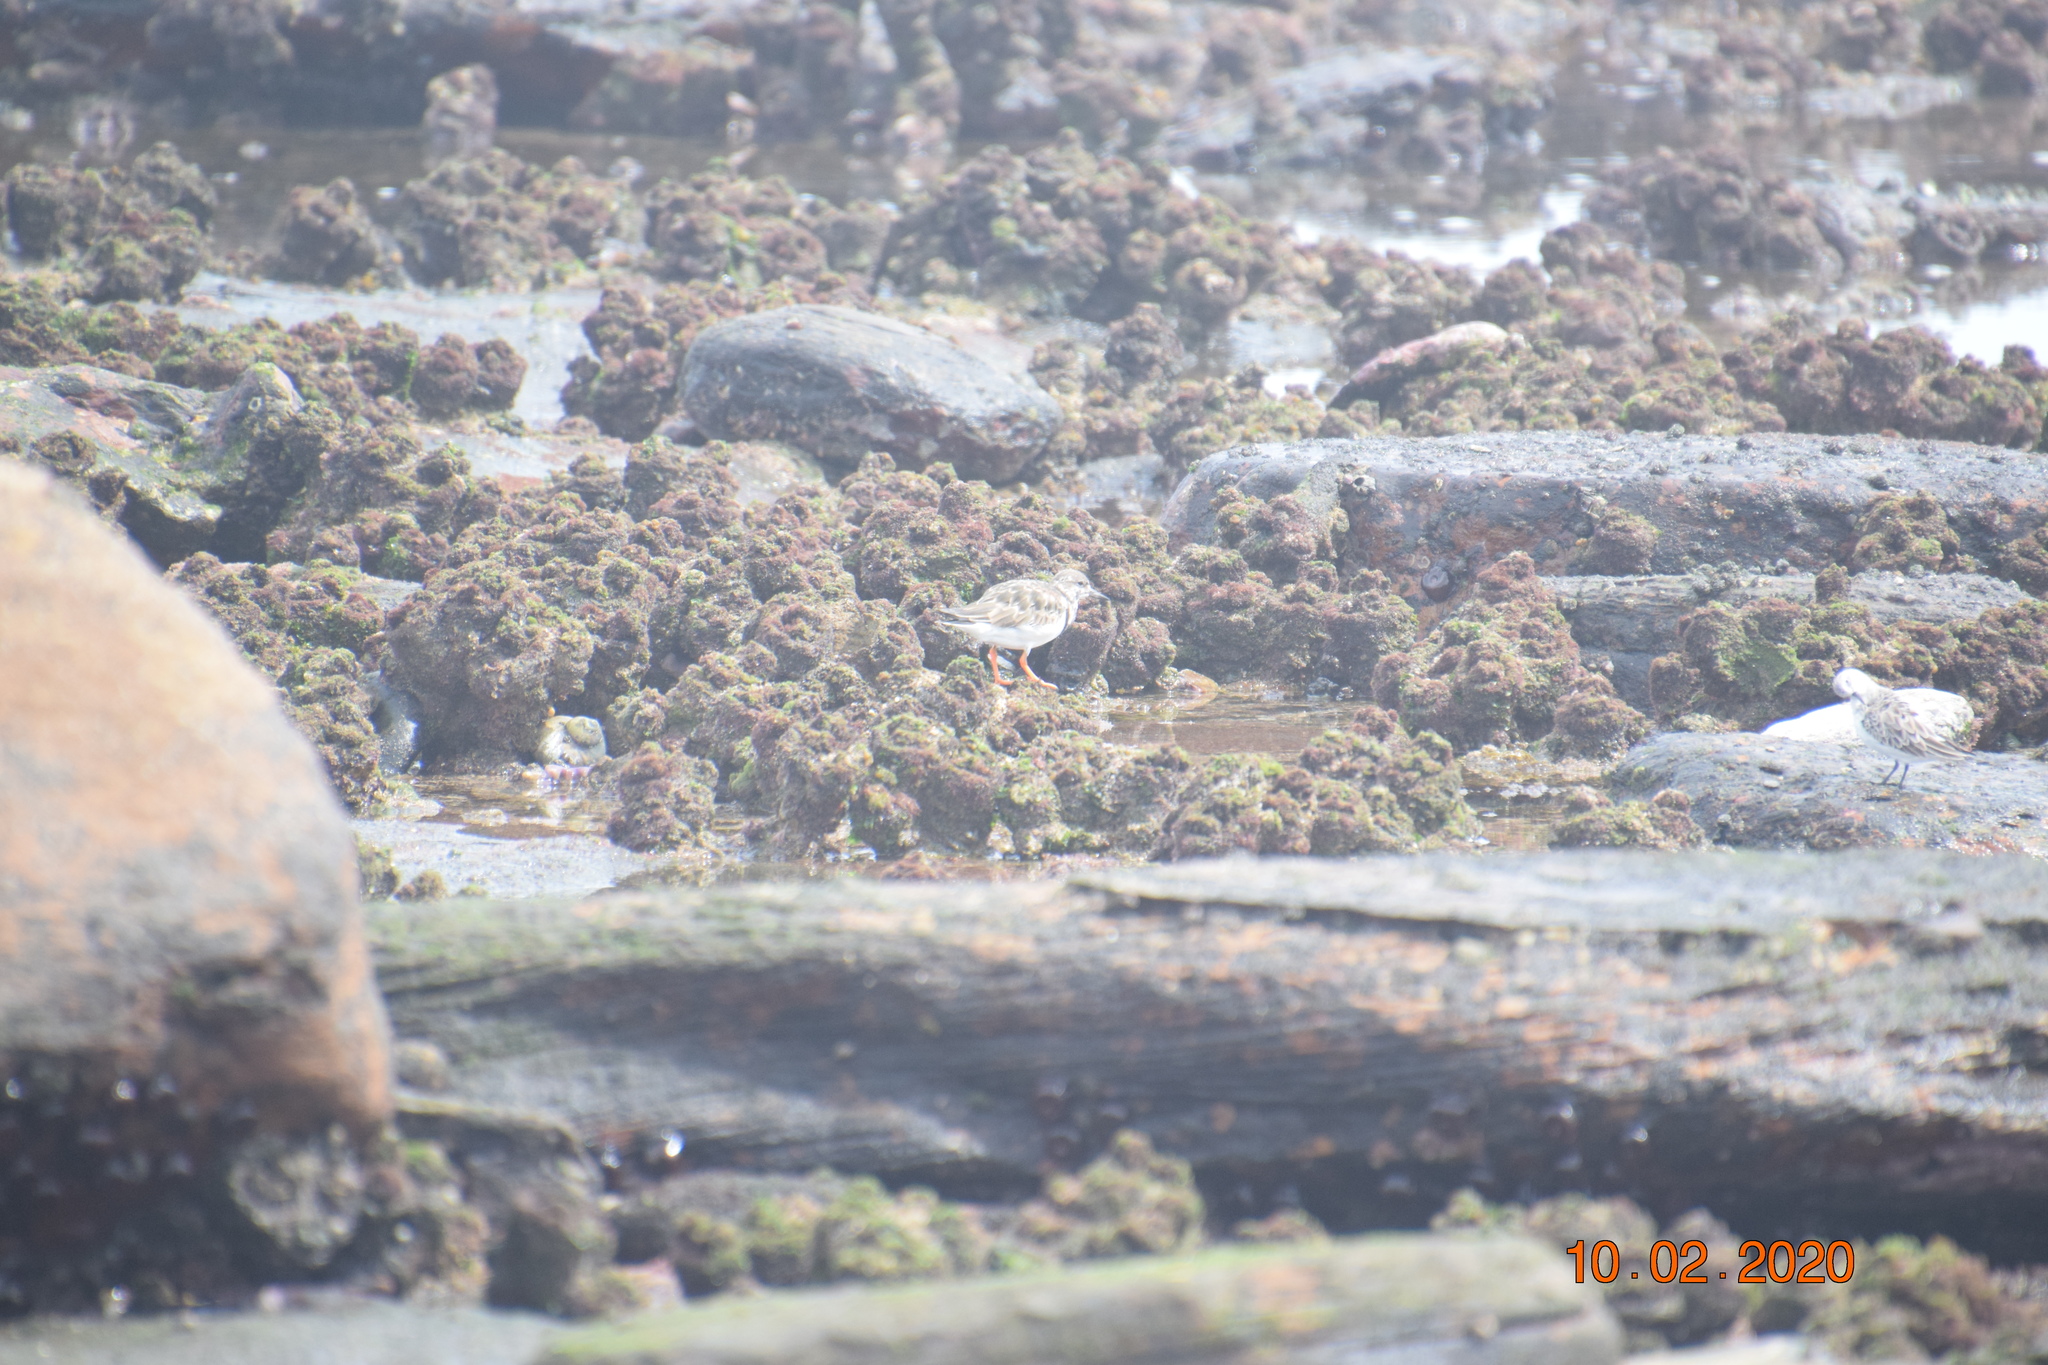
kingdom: Animalia
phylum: Chordata
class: Aves
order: Charadriiformes
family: Scolopacidae
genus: Arenaria
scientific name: Arenaria interpres
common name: Ruddy turnstone
